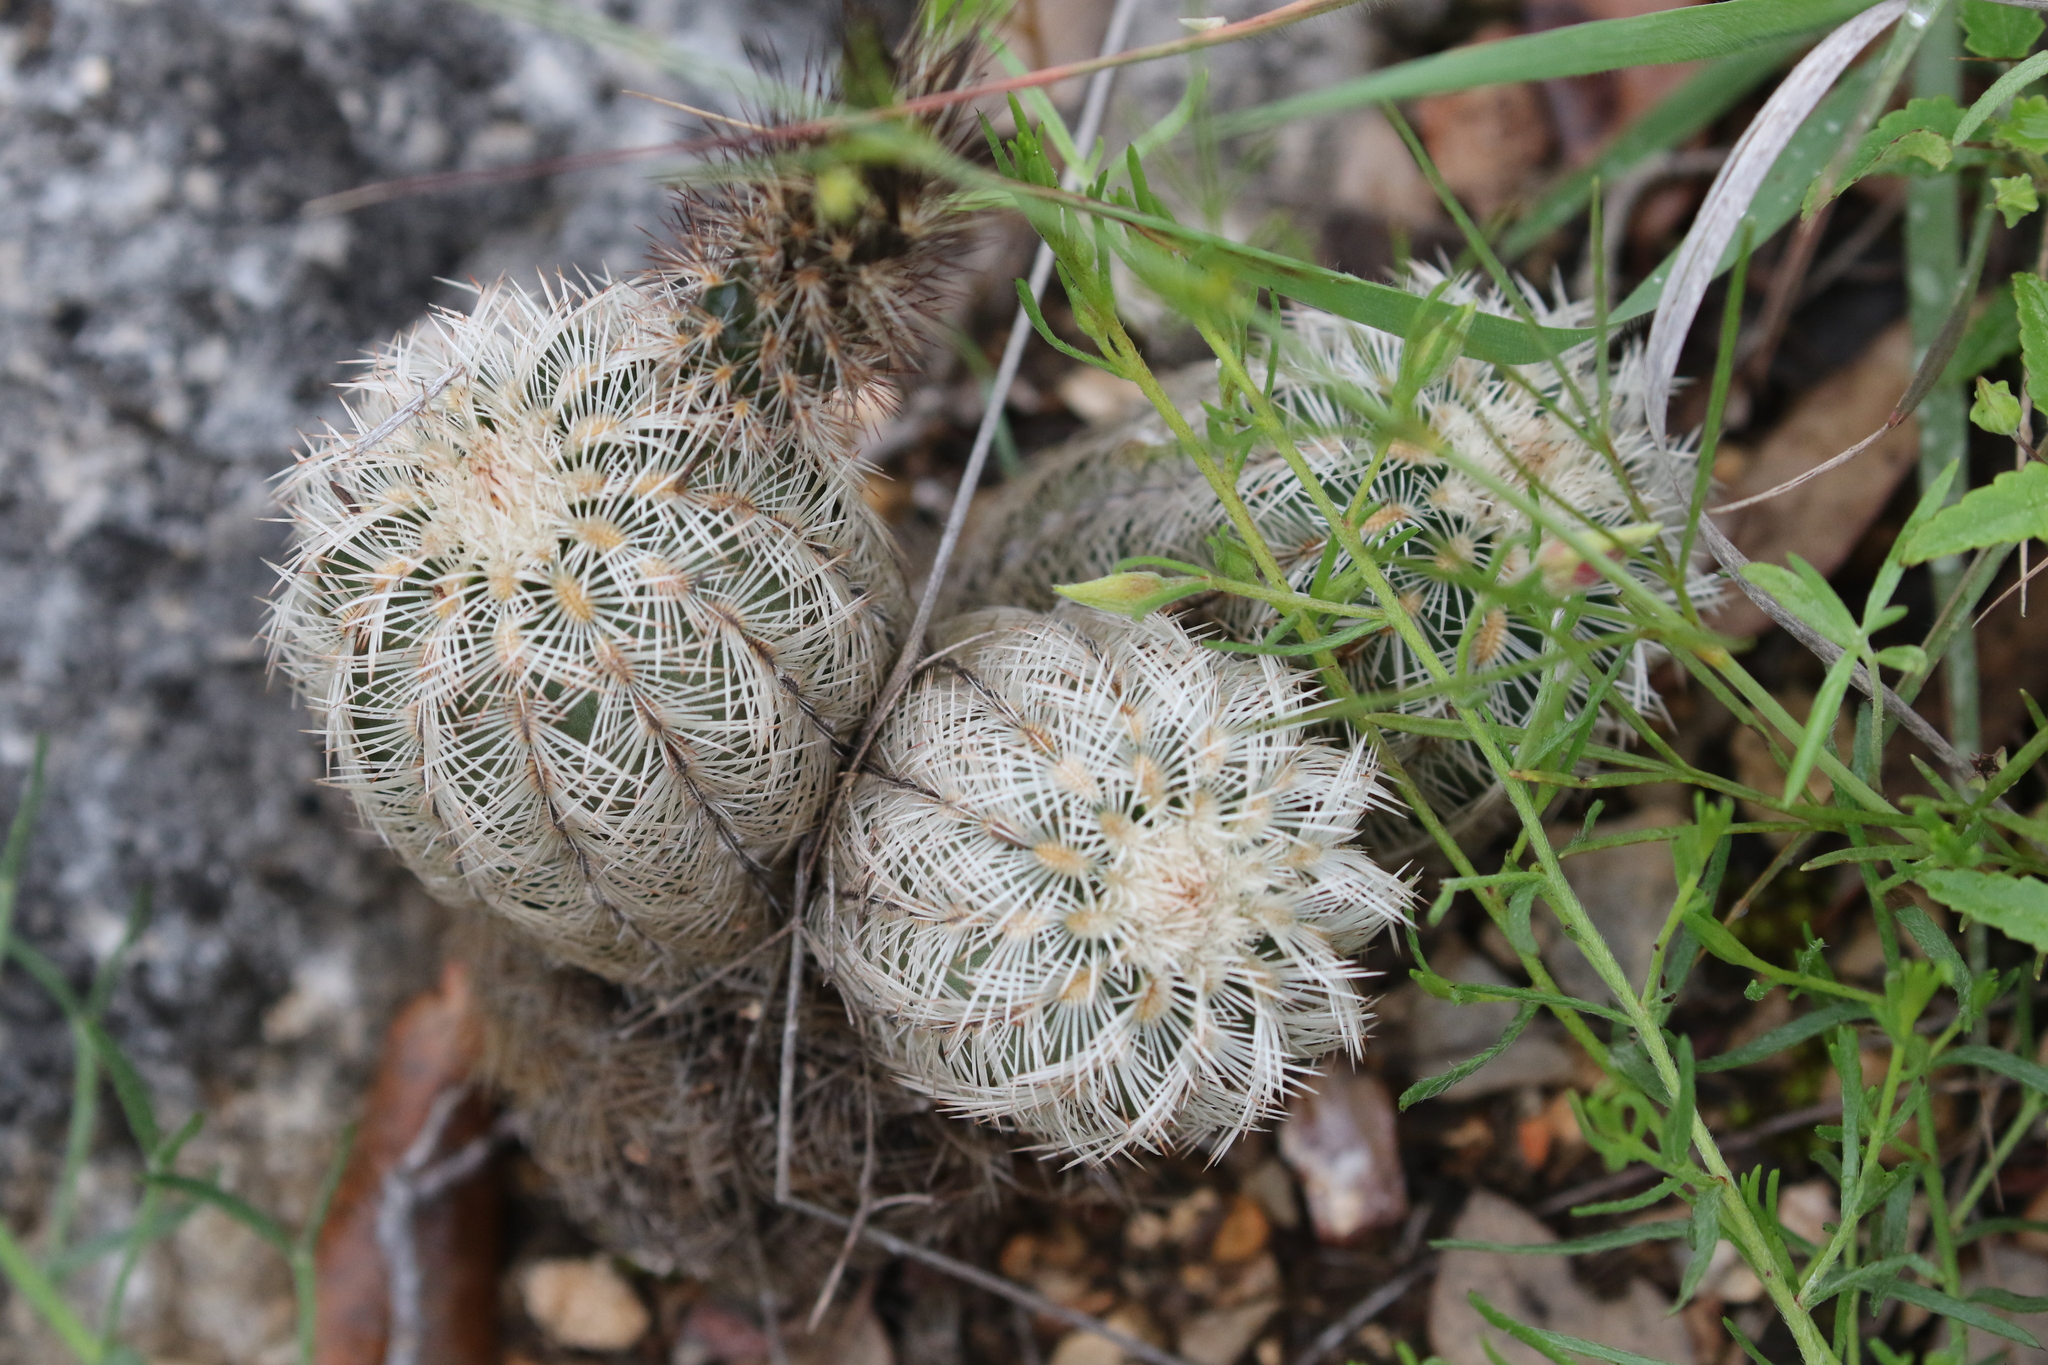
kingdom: Plantae
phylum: Tracheophyta
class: Magnoliopsida
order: Caryophyllales
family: Cactaceae
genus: Echinocereus
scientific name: Echinocereus reichenbachii
